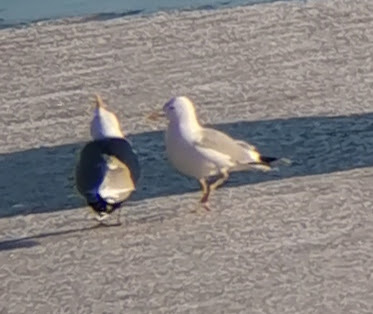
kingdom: Animalia
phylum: Chordata
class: Aves
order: Charadriiformes
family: Laridae
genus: Larus
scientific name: Larus canus
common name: Mew gull
